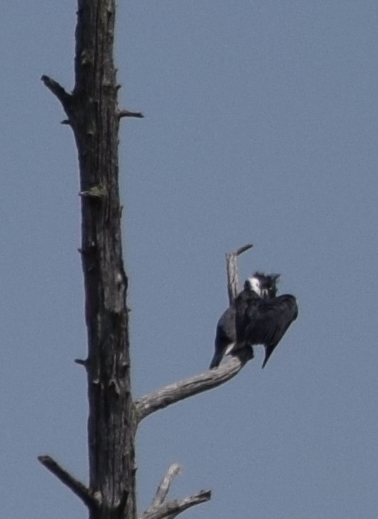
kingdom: Animalia
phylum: Chordata
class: Aves
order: Coraciiformes
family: Alcedinidae
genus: Megaceryle
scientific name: Megaceryle alcyon
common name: Belted kingfisher
